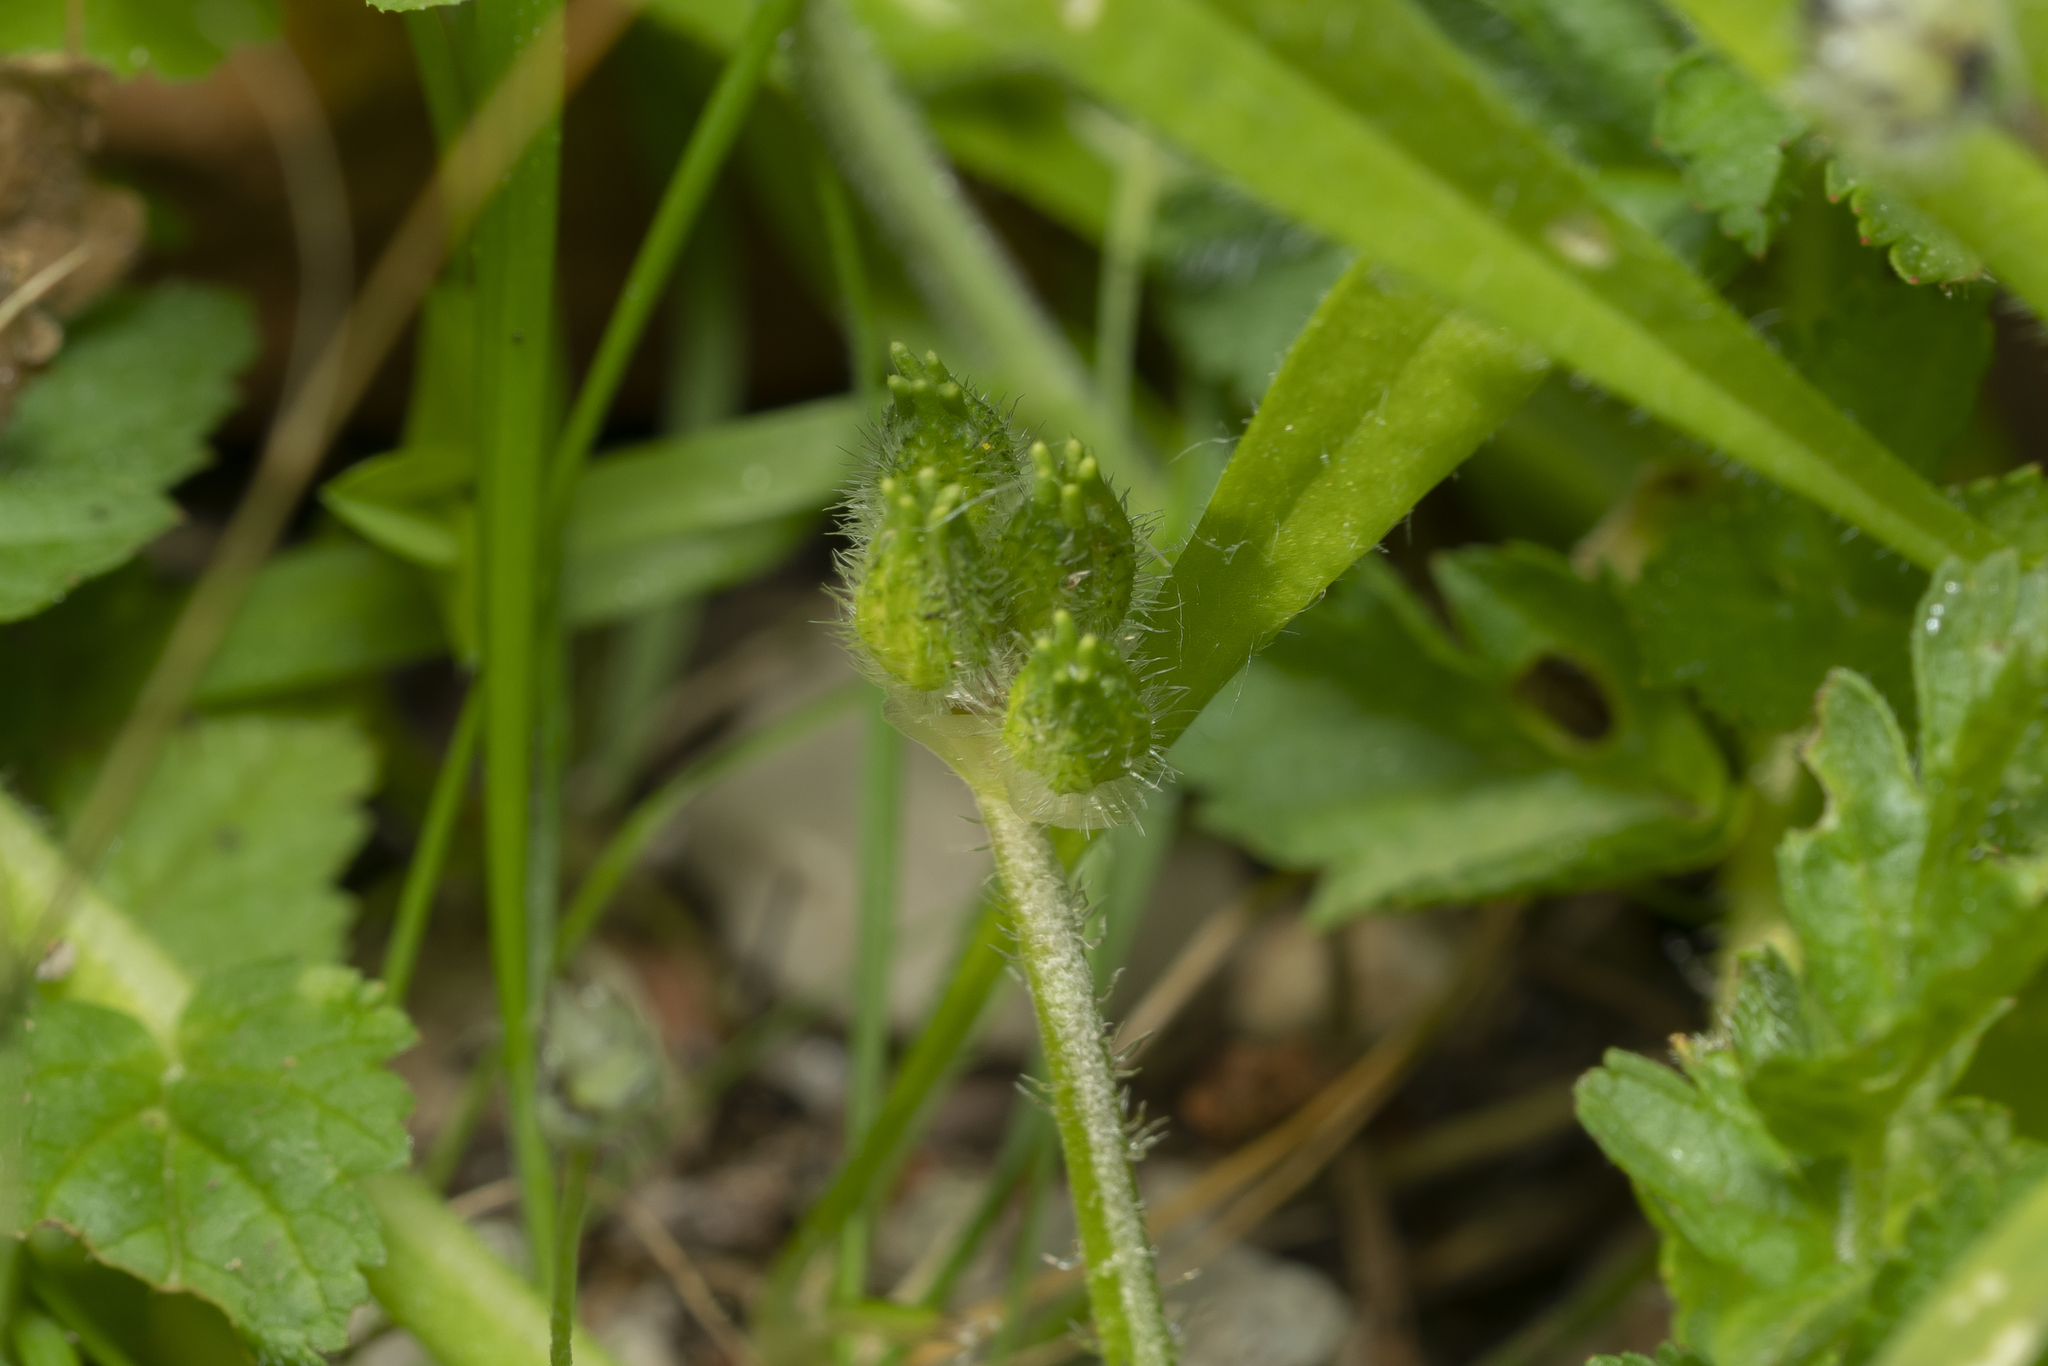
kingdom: Plantae
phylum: Tracheophyta
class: Magnoliopsida
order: Geraniales
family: Geraniaceae
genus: Erodium
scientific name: Erodium moschatum
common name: Musk stork's-bill
